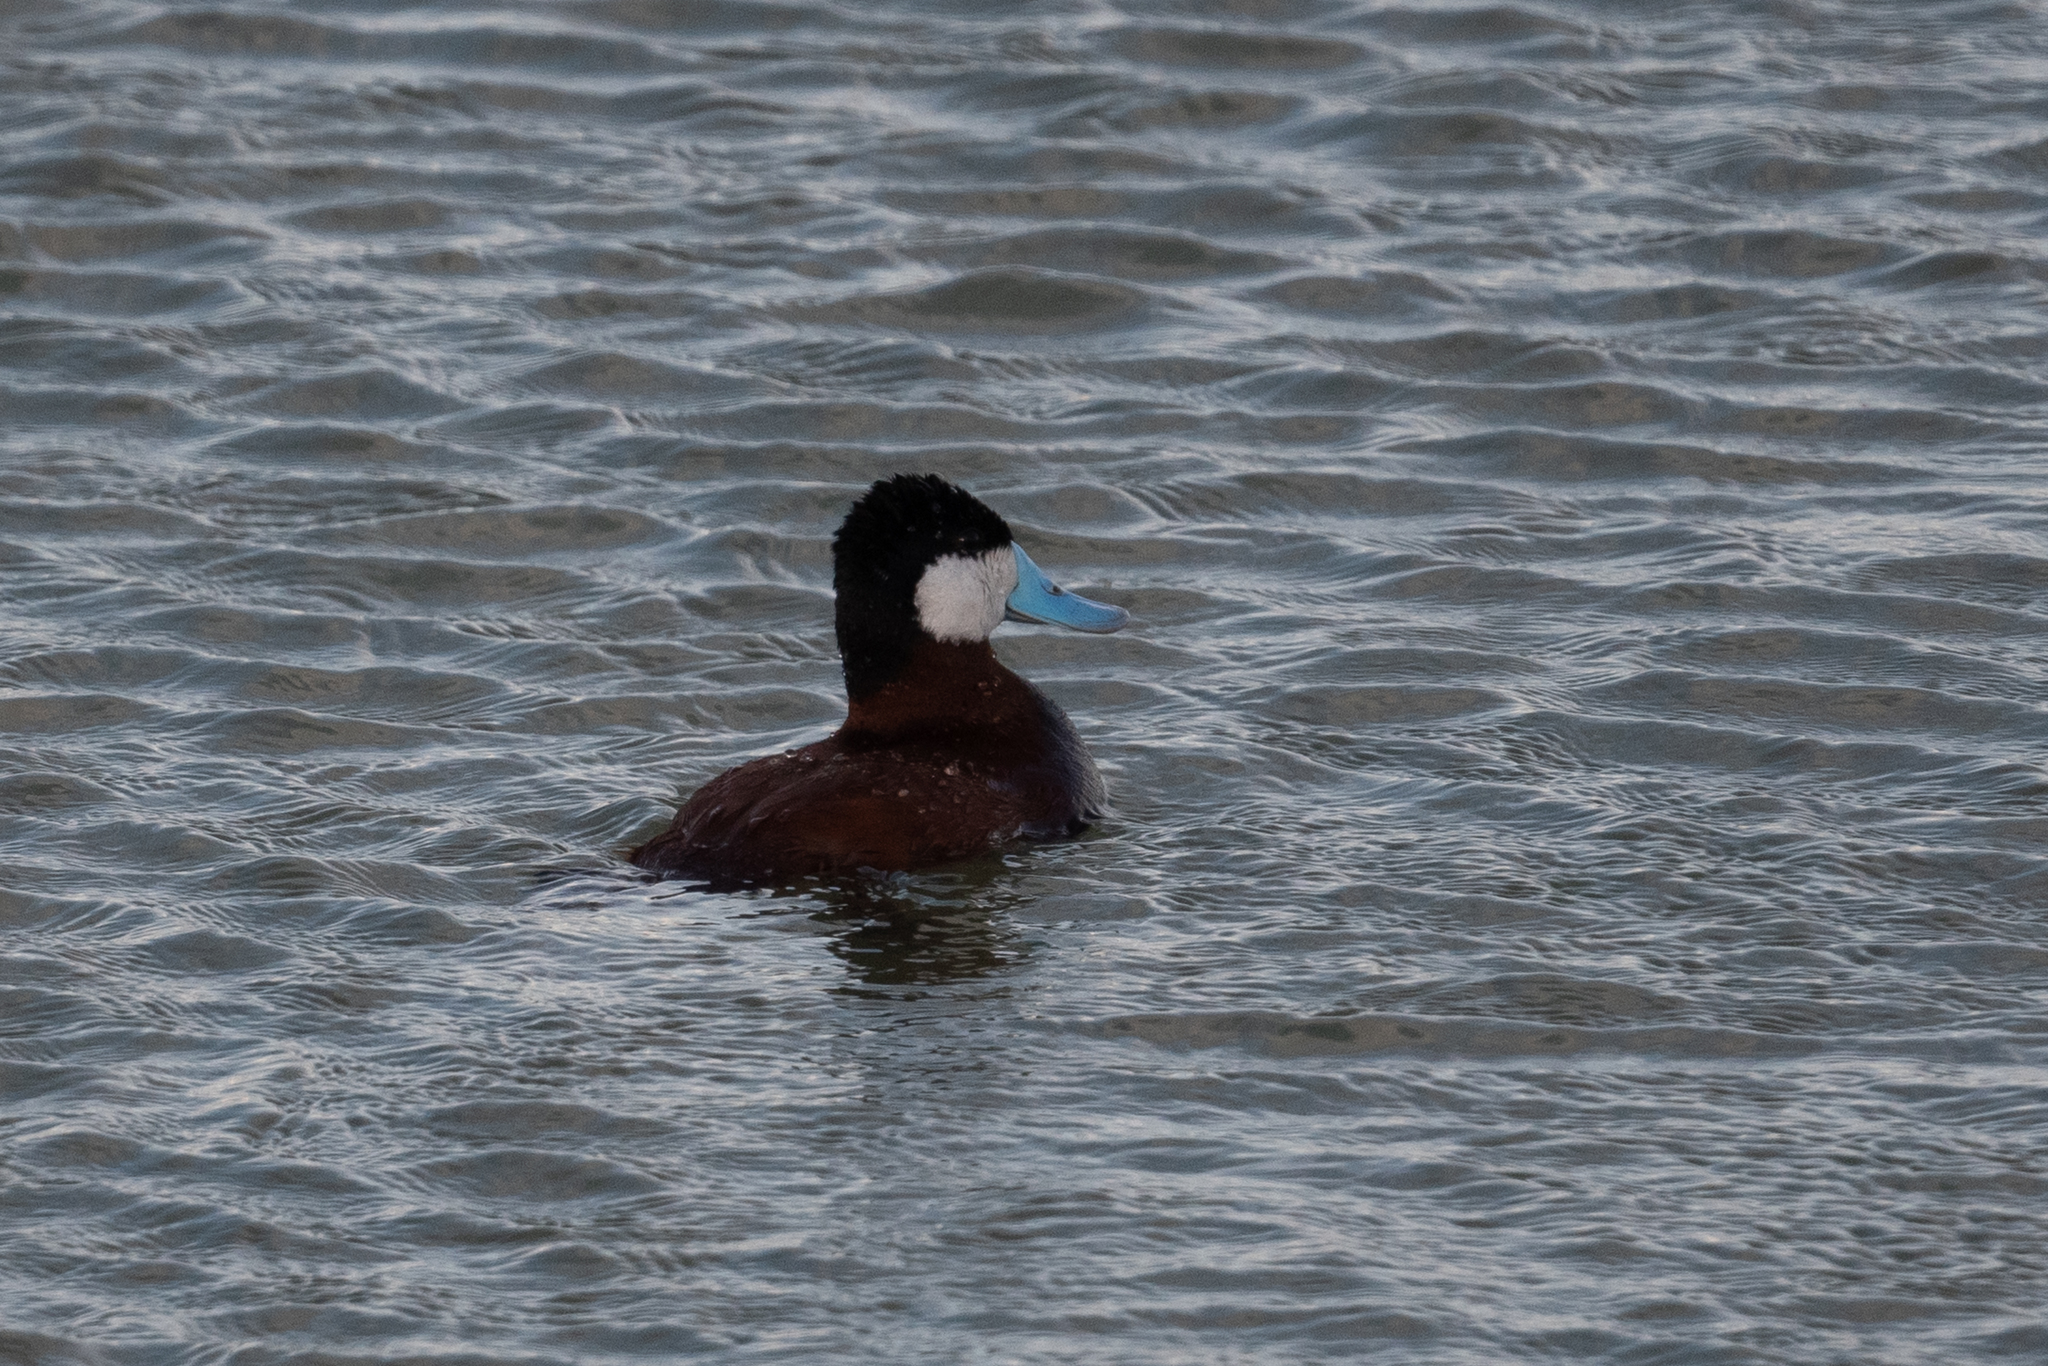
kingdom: Animalia
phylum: Chordata
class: Aves
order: Anseriformes
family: Anatidae
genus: Oxyura
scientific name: Oxyura jamaicensis
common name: Ruddy duck
